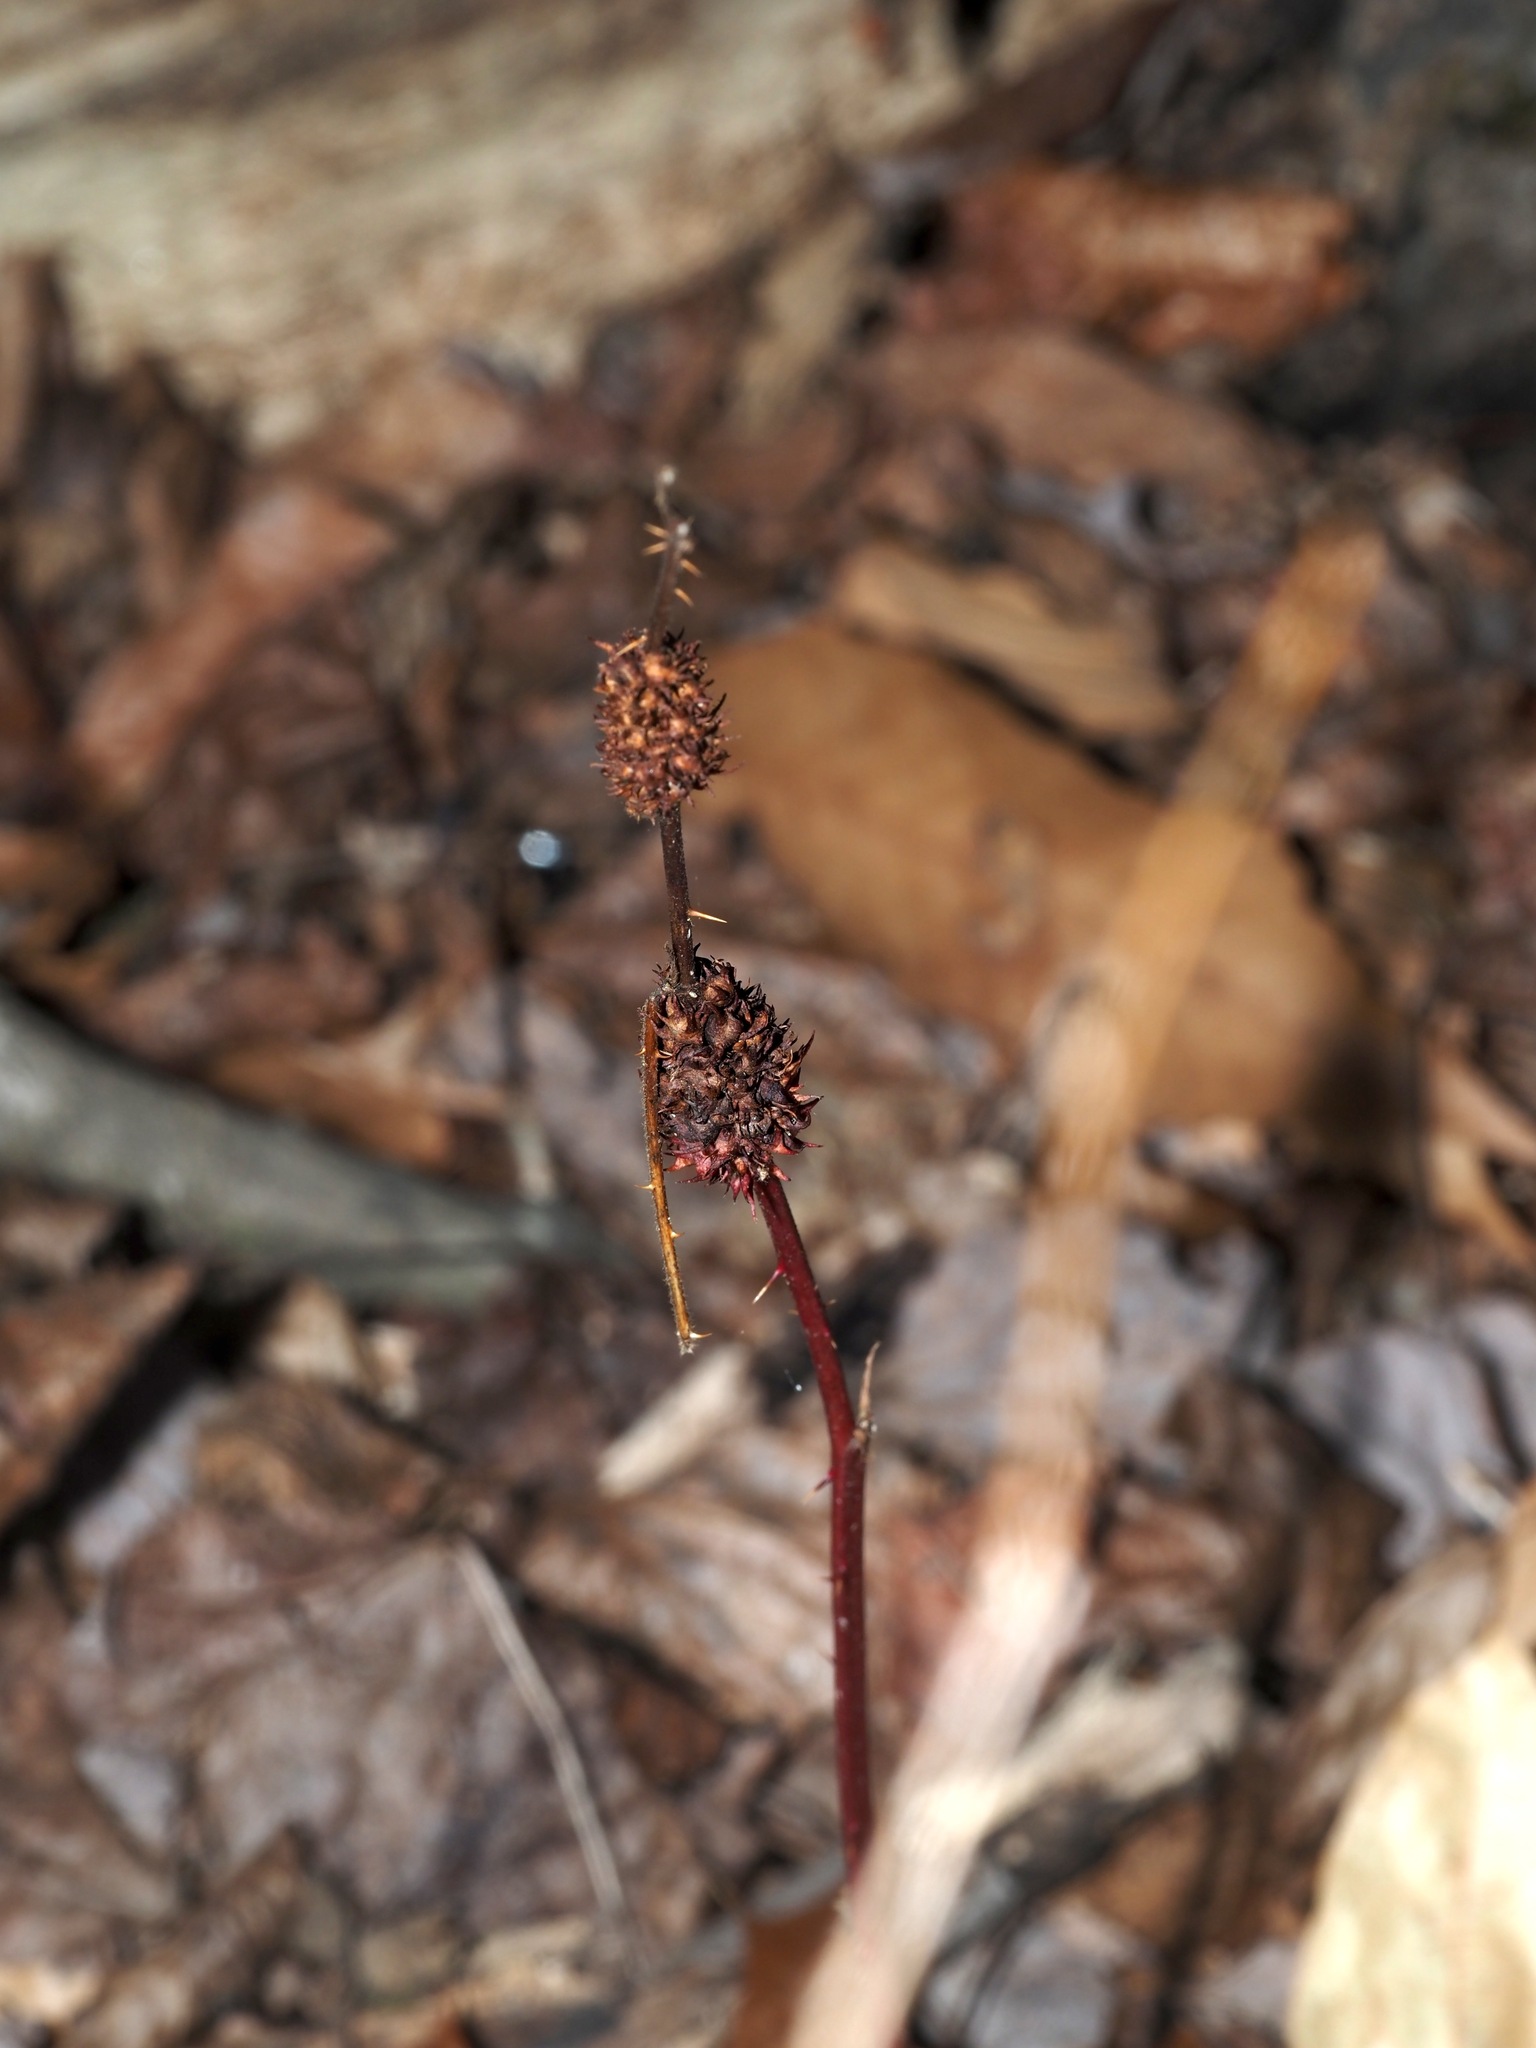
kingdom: Animalia
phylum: Arthropoda
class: Insecta
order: Hymenoptera
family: Cynipidae
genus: Diastrophus
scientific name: Diastrophus
